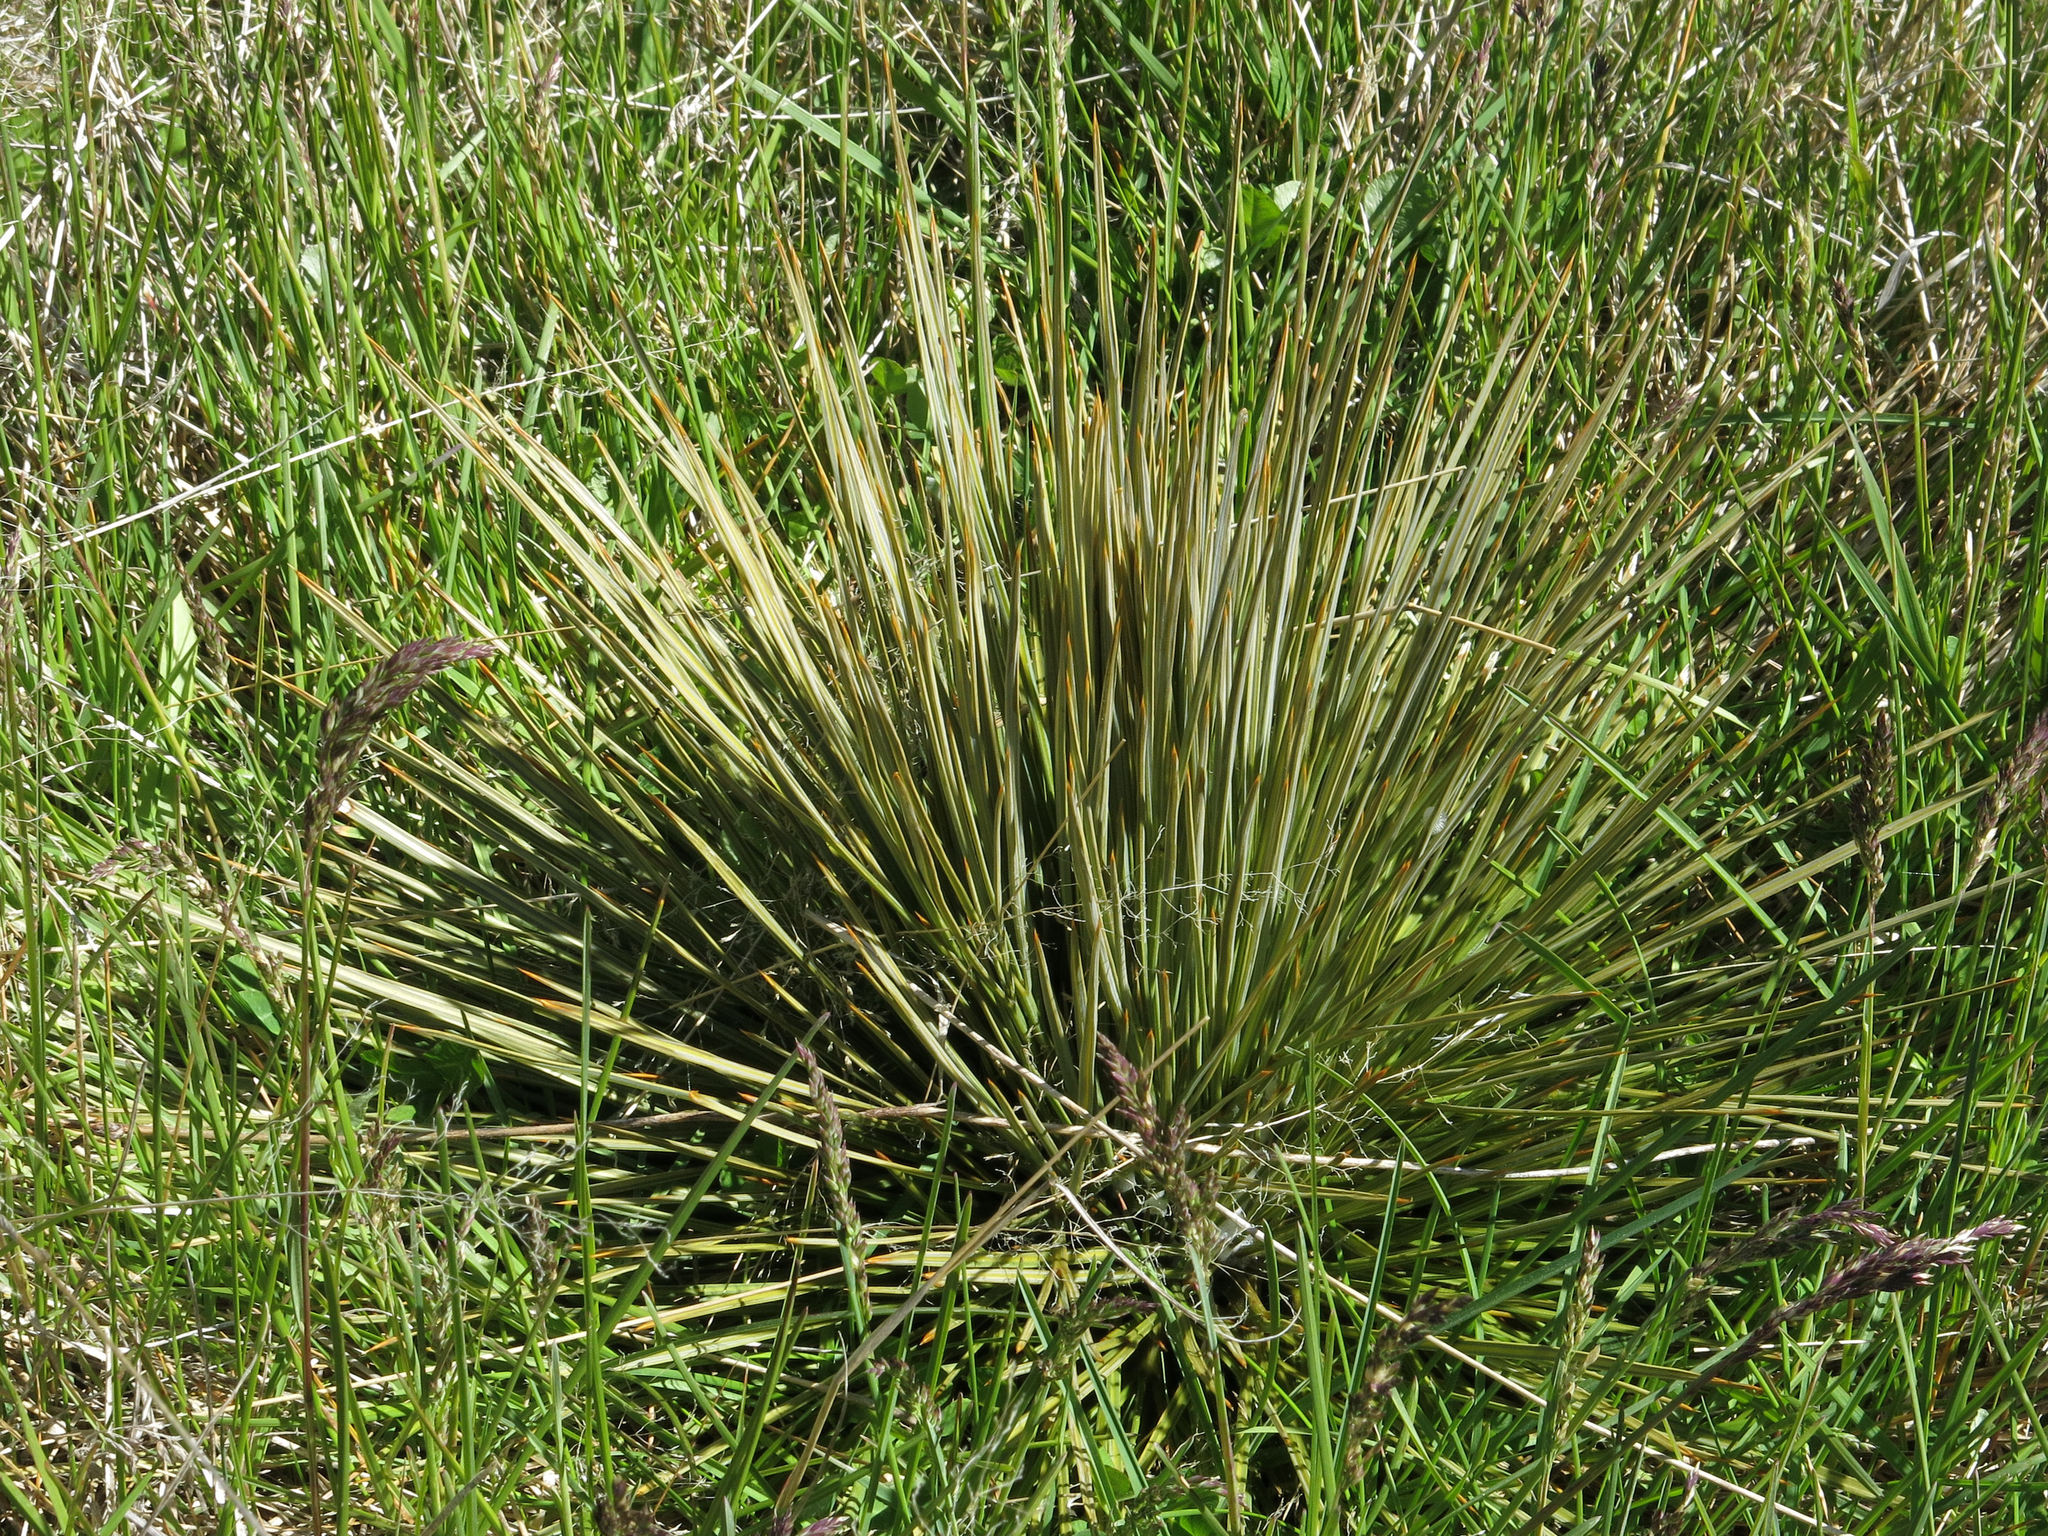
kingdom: Plantae
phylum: Tracheophyta
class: Magnoliopsida
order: Apiales
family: Apiaceae
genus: Aciphylla
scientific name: Aciphylla subflabellata
